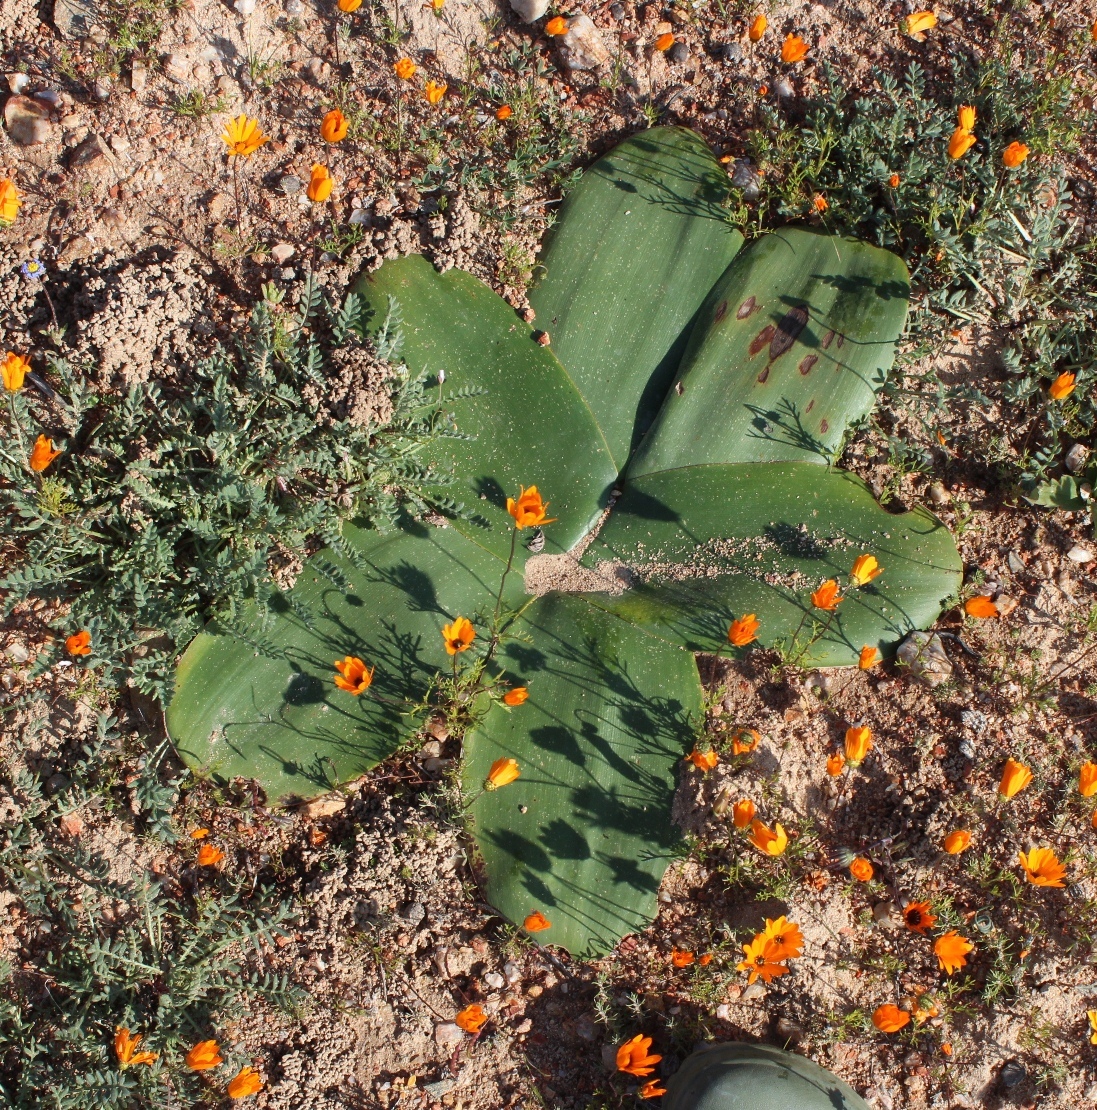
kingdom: Plantae
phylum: Tracheophyta
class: Liliopsida
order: Asparagales
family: Amaryllidaceae
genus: Brunsvigia
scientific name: Brunsvigia bosmaniae
